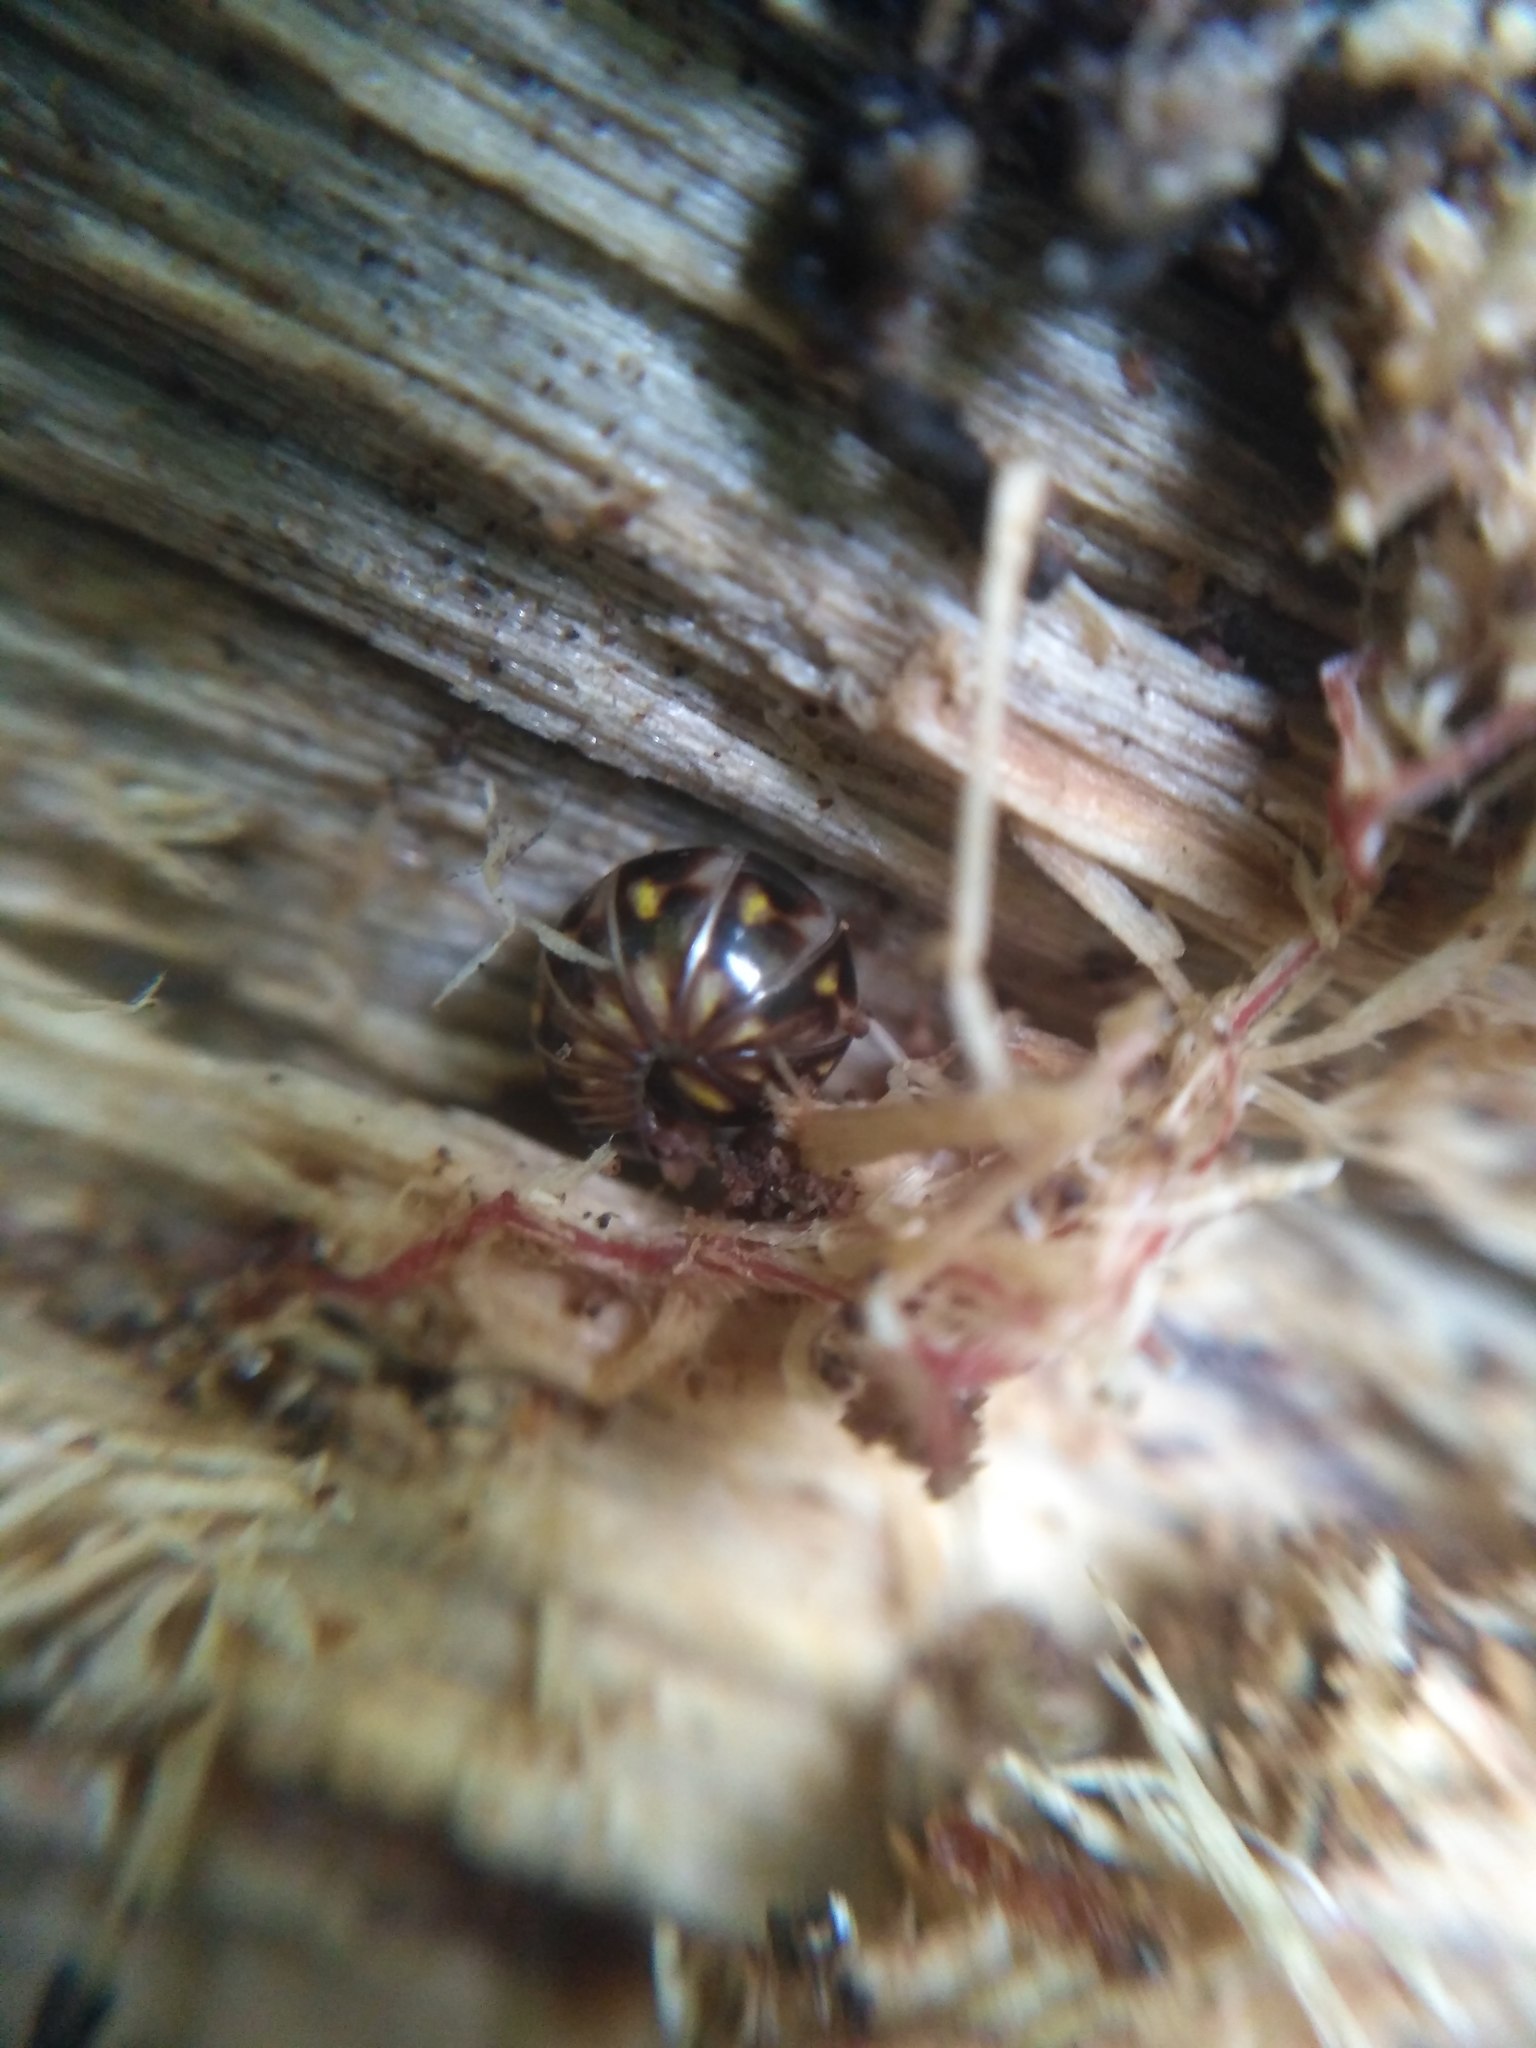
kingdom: Animalia
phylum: Arthropoda
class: Diplopoda
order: Glomerida
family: Glomeridae
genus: Glomeris
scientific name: Glomeris hexasticha
